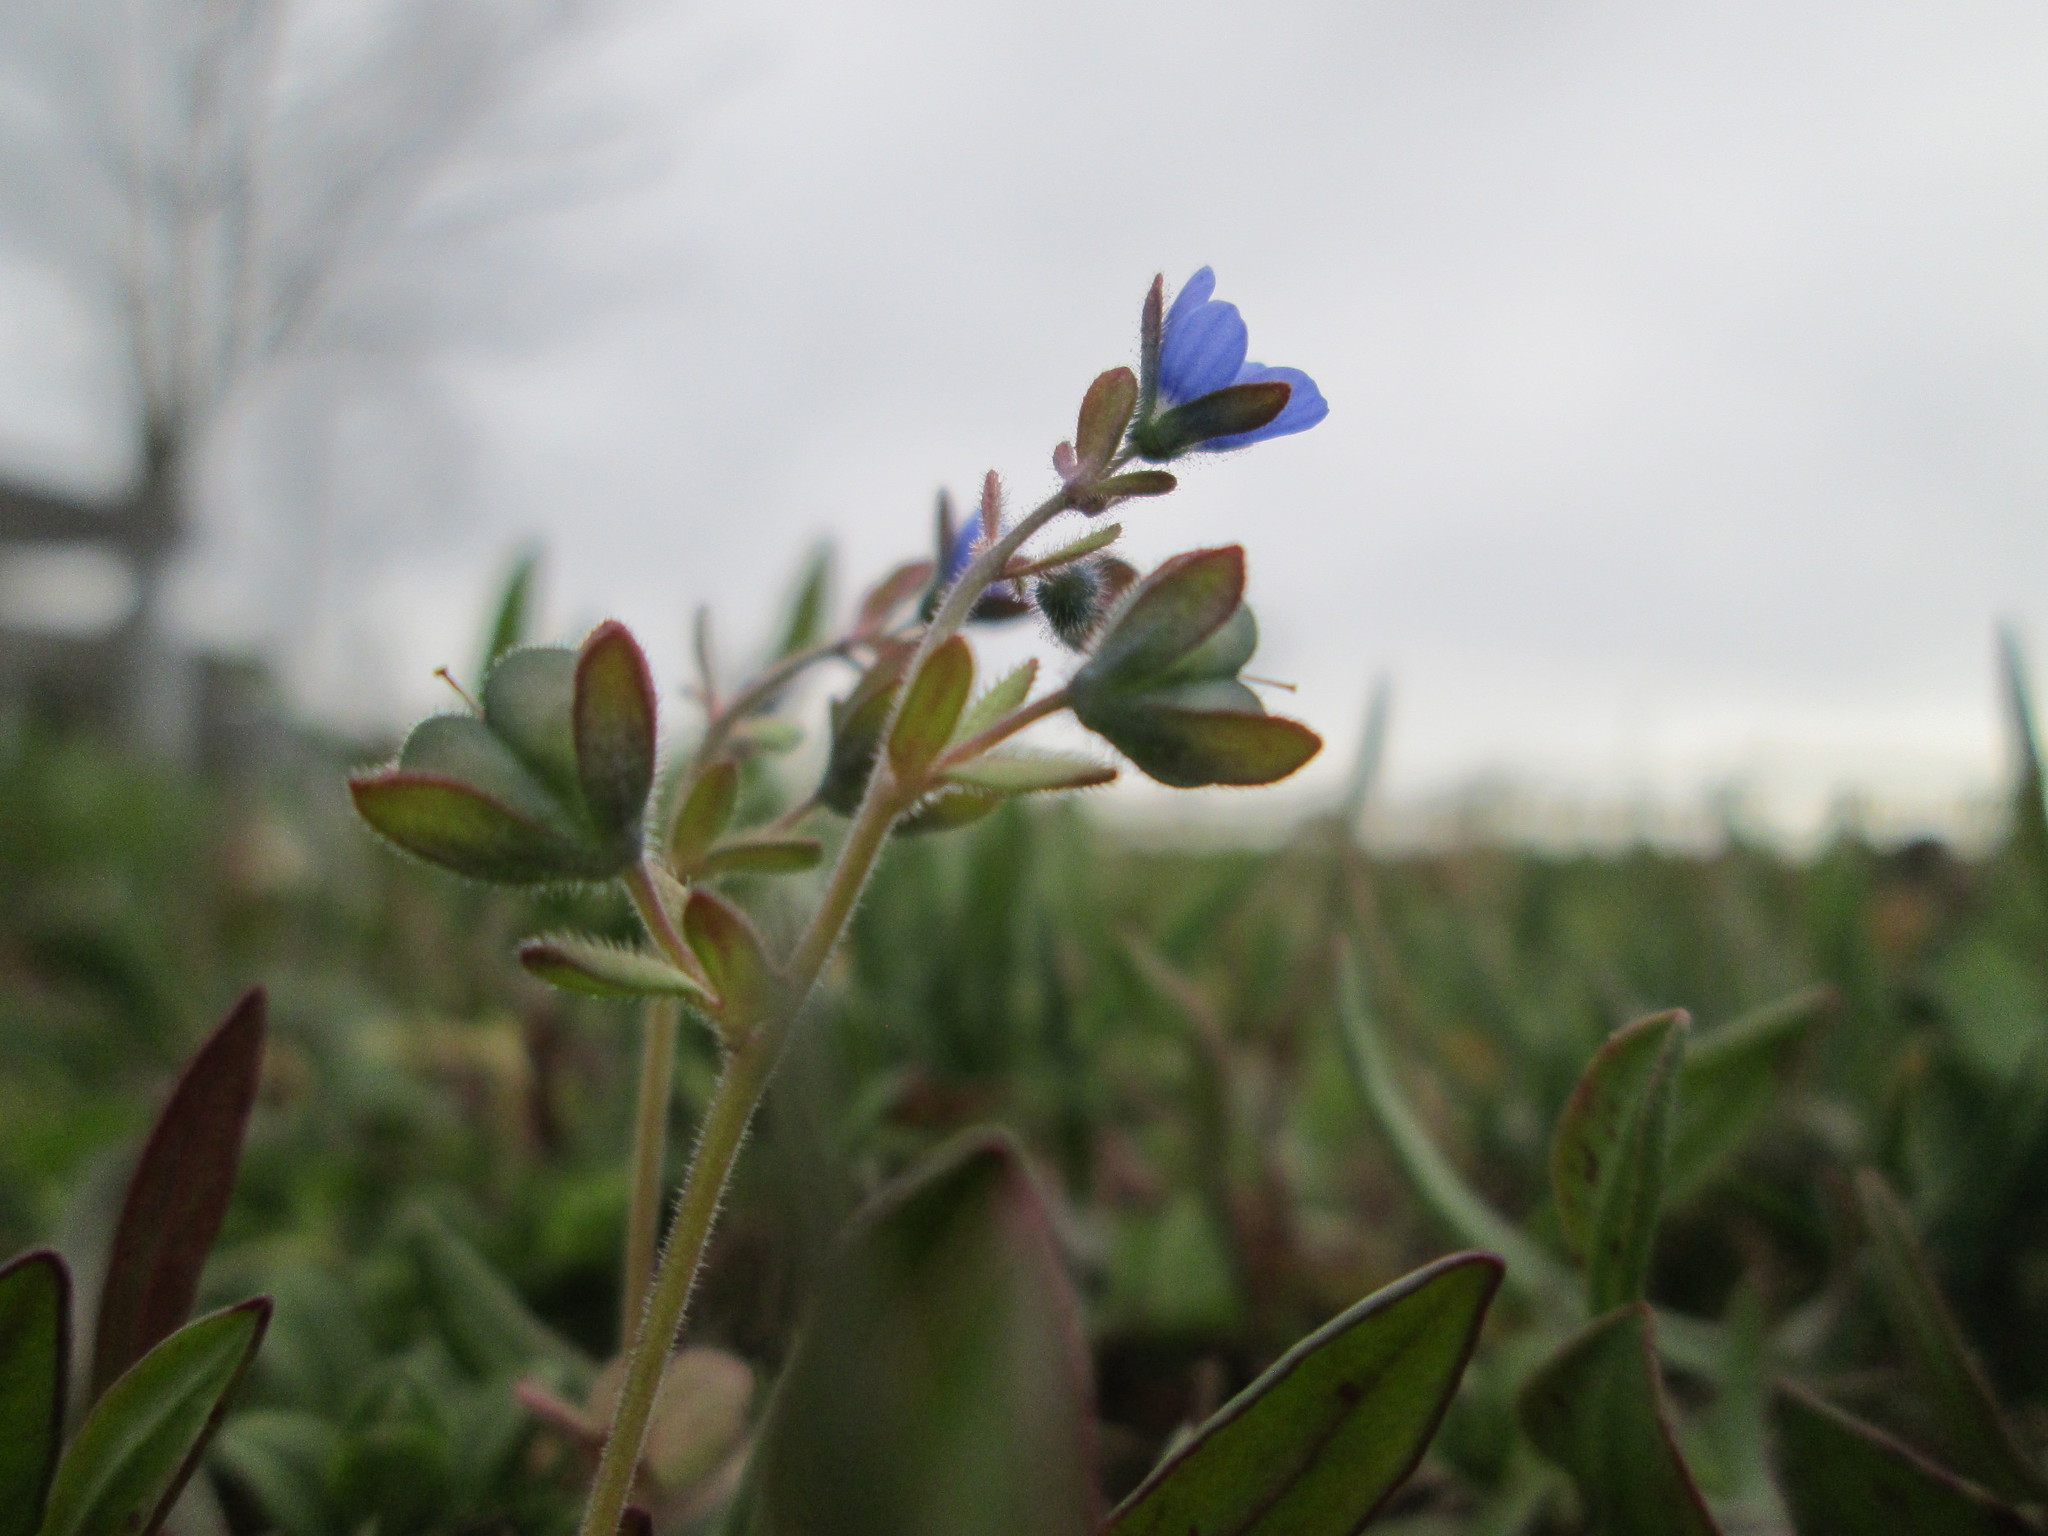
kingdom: Plantae
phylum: Tracheophyta
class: Magnoliopsida
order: Lamiales
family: Plantaginaceae
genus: Veronica
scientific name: Veronica triphyllos
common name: Fingered speedwell
